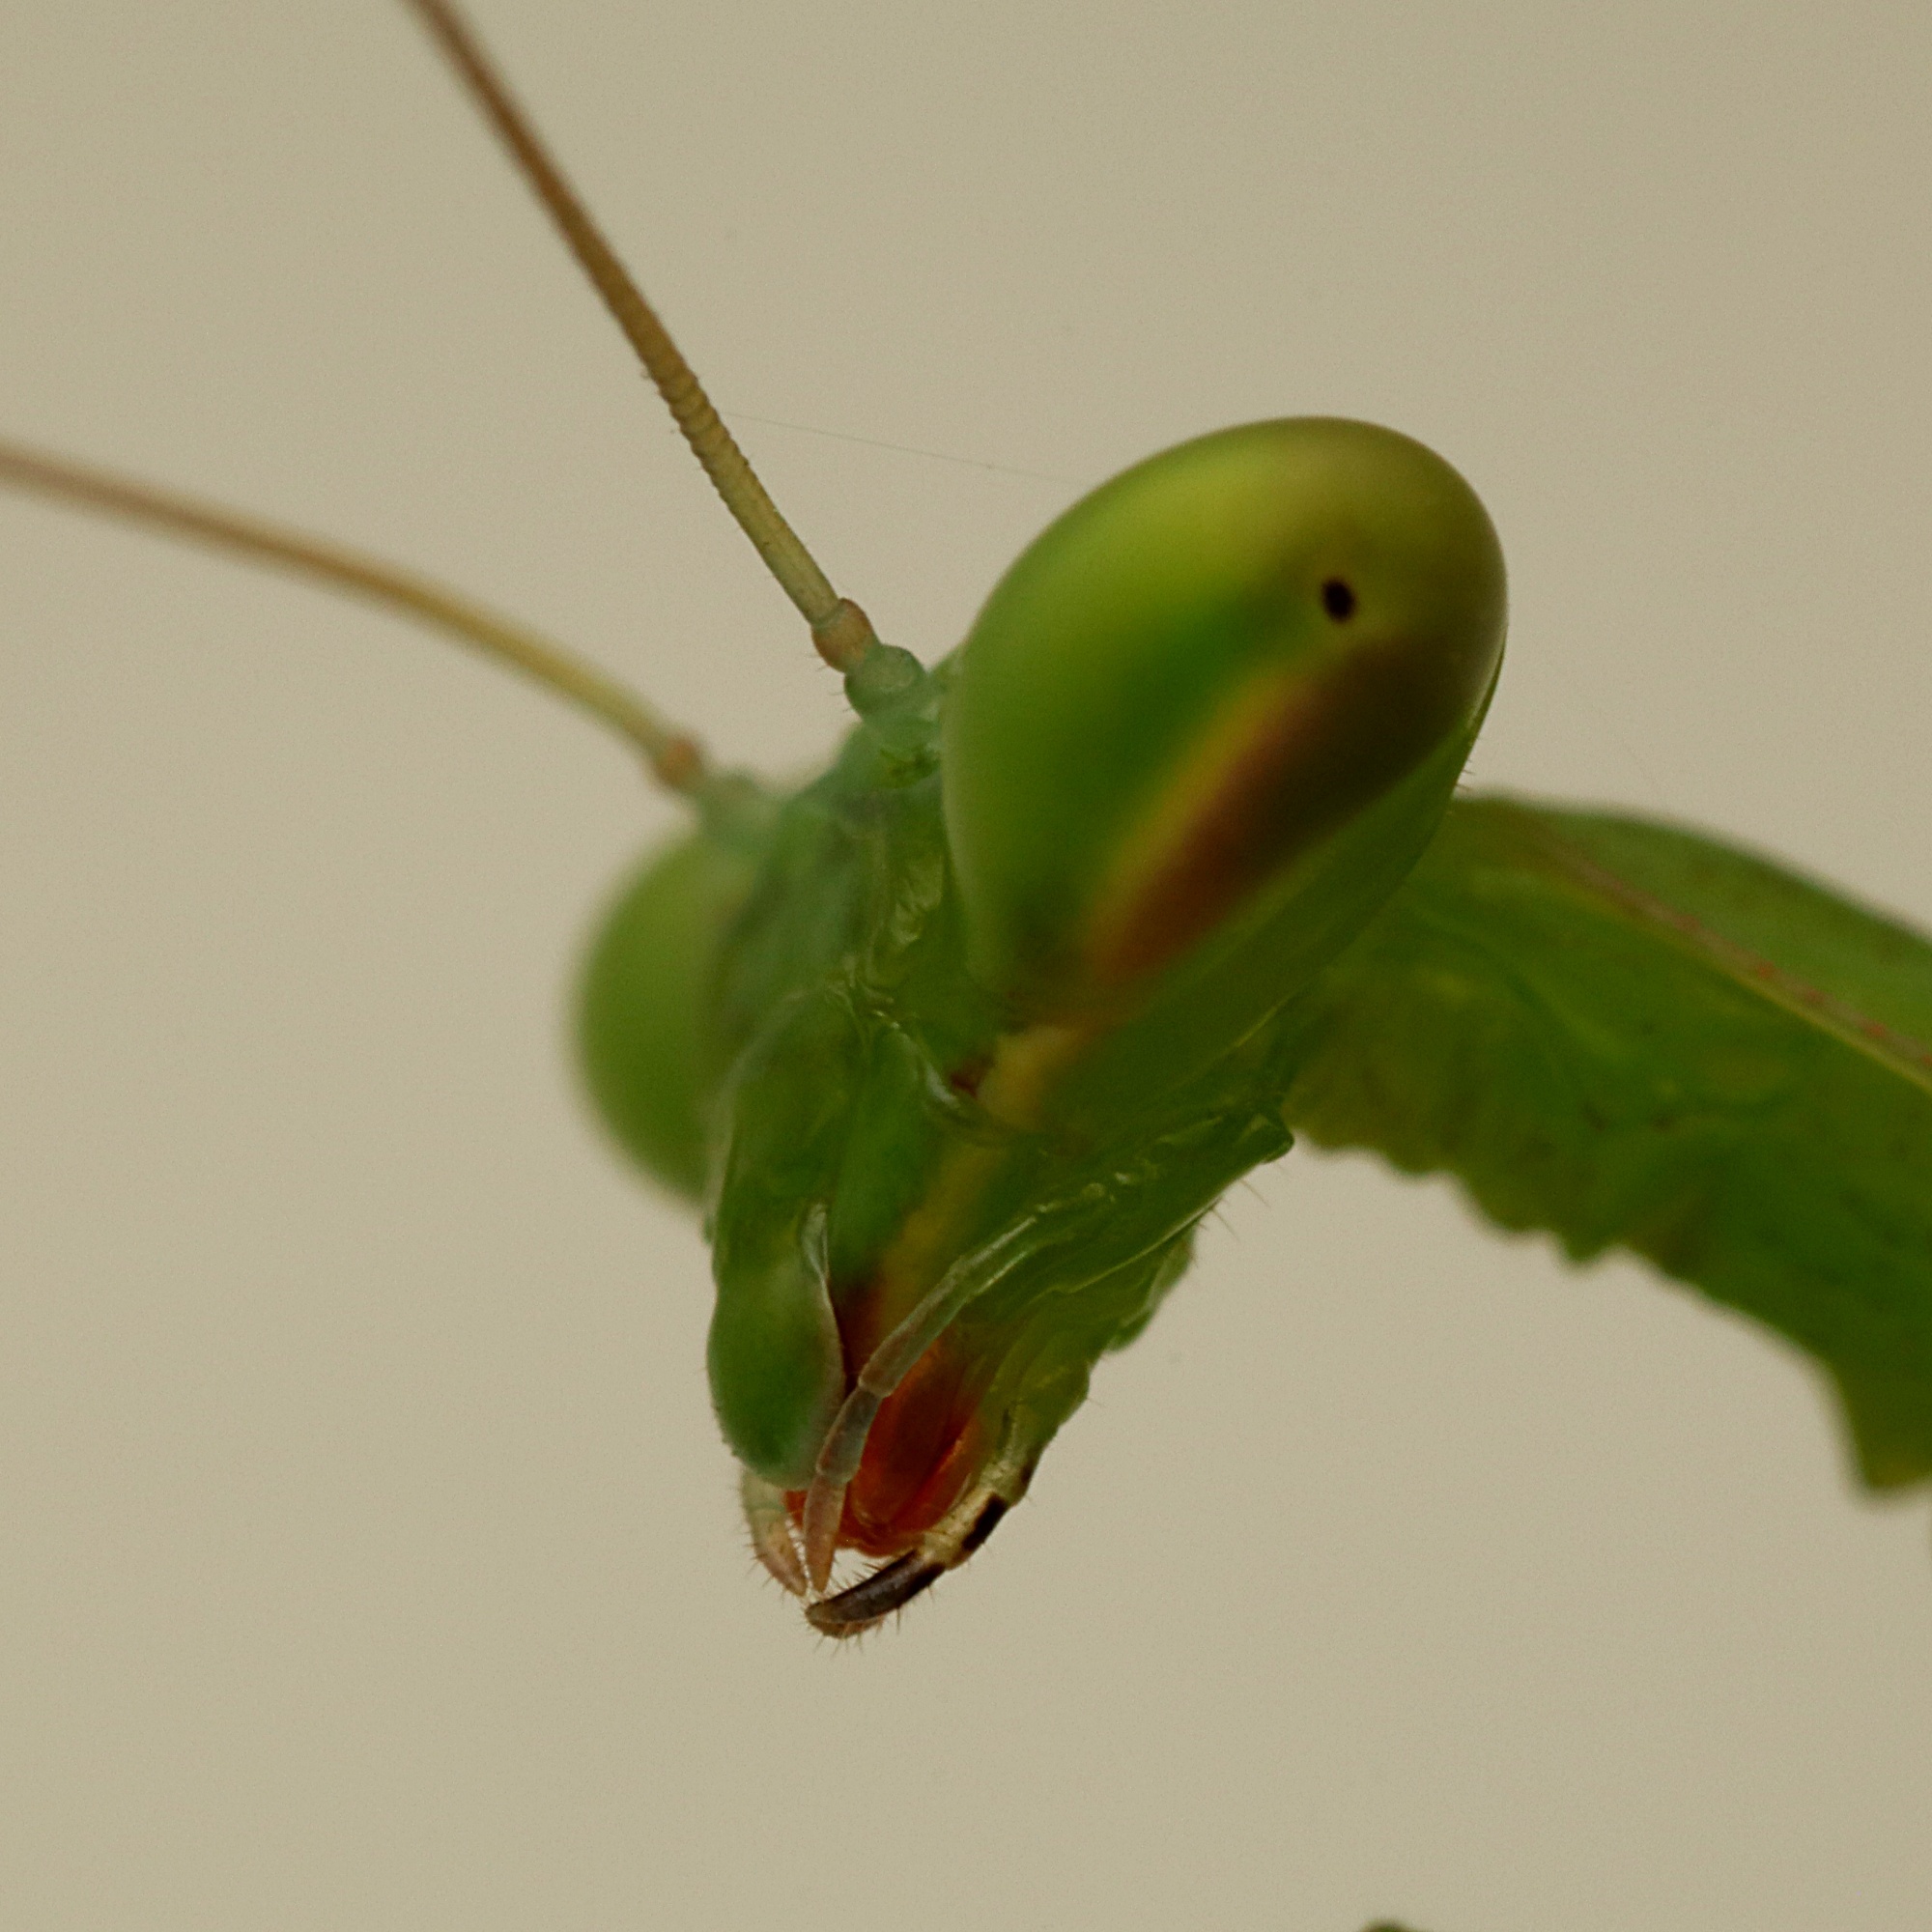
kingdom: Animalia
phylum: Arthropoda
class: Insecta
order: Mantodea
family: Miomantidae
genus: Miomantis
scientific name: Miomantis caffra
